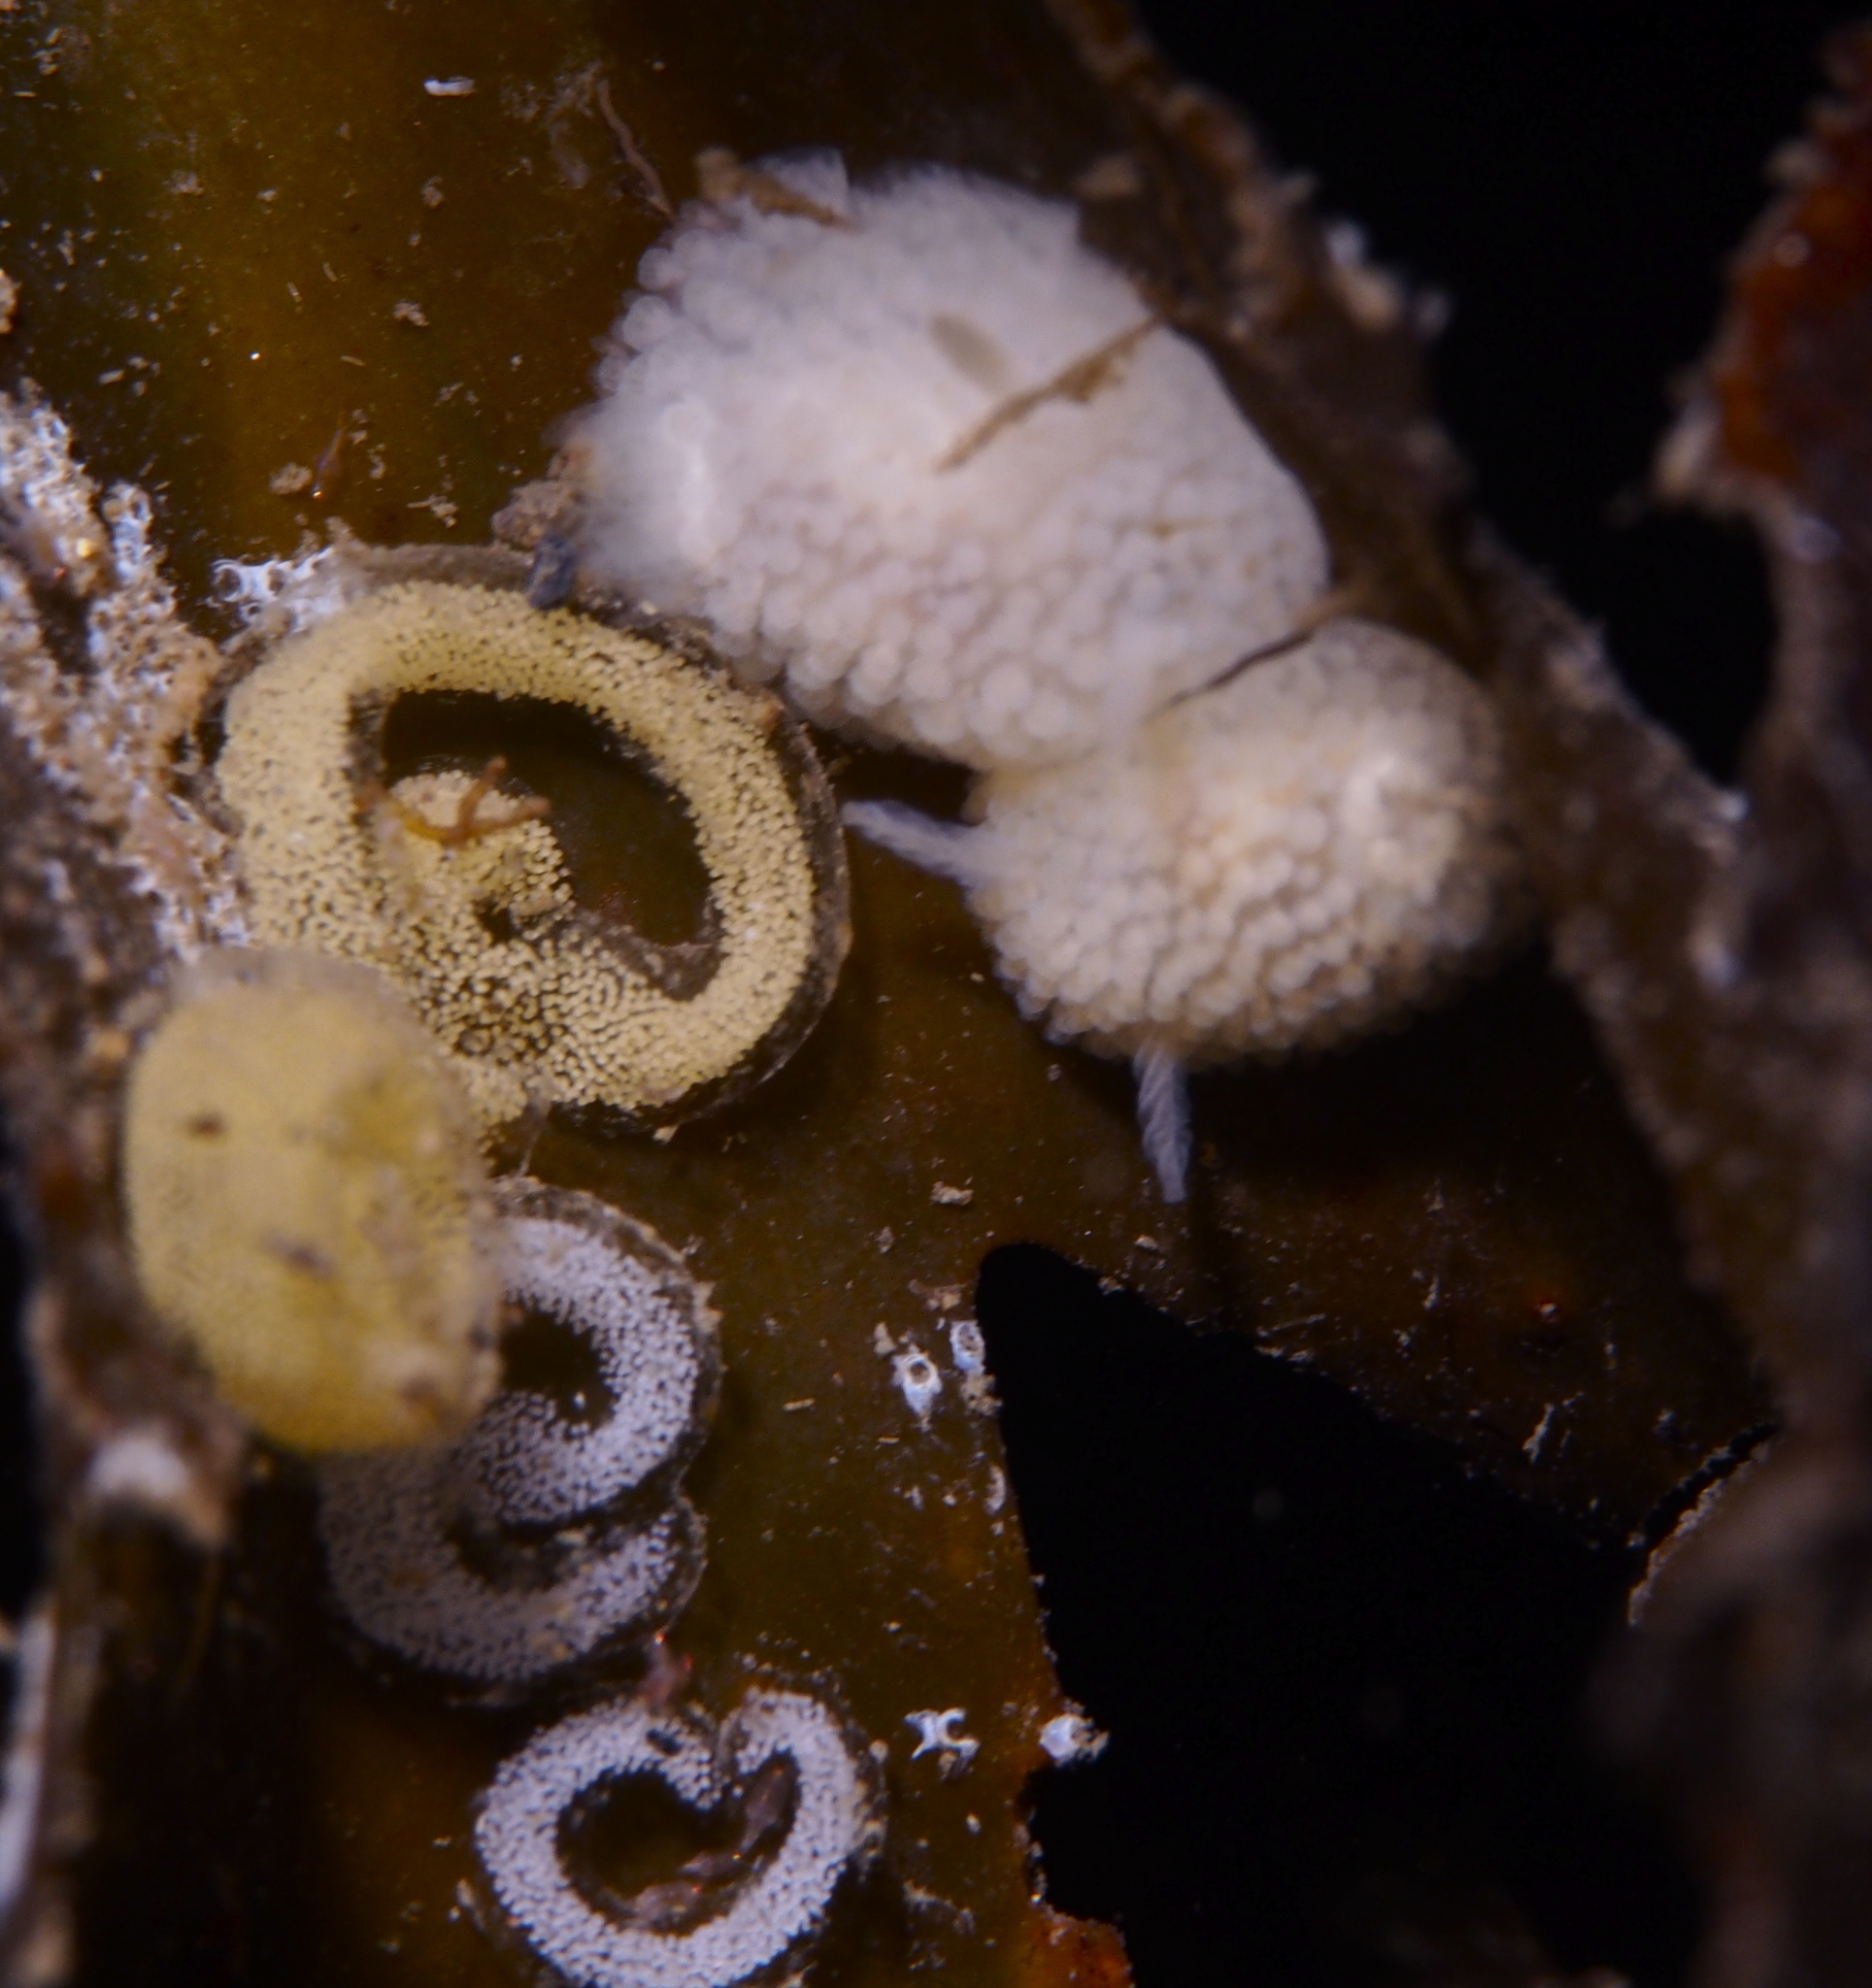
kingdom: Animalia
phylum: Mollusca
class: Gastropoda
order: Nudibranchia
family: Onchidorididae
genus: Onchidoris
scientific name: Onchidoris muricata
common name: Rough doris
